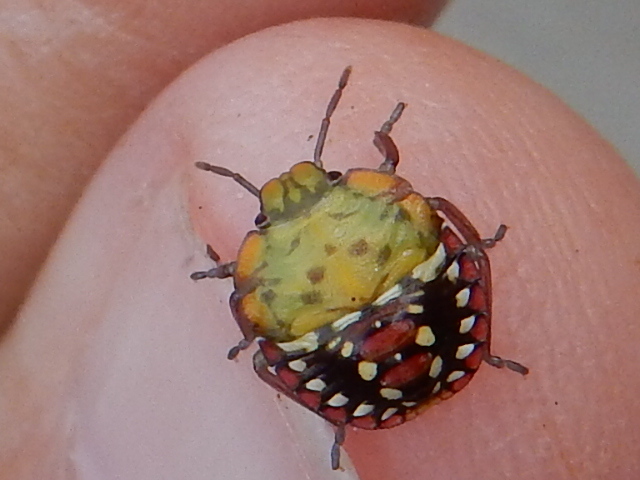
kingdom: Animalia
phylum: Arthropoda
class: Insecta
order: Hemiptera
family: Pentatomidae
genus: Nezara
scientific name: Nezara viridula
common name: Southern green stink bug
